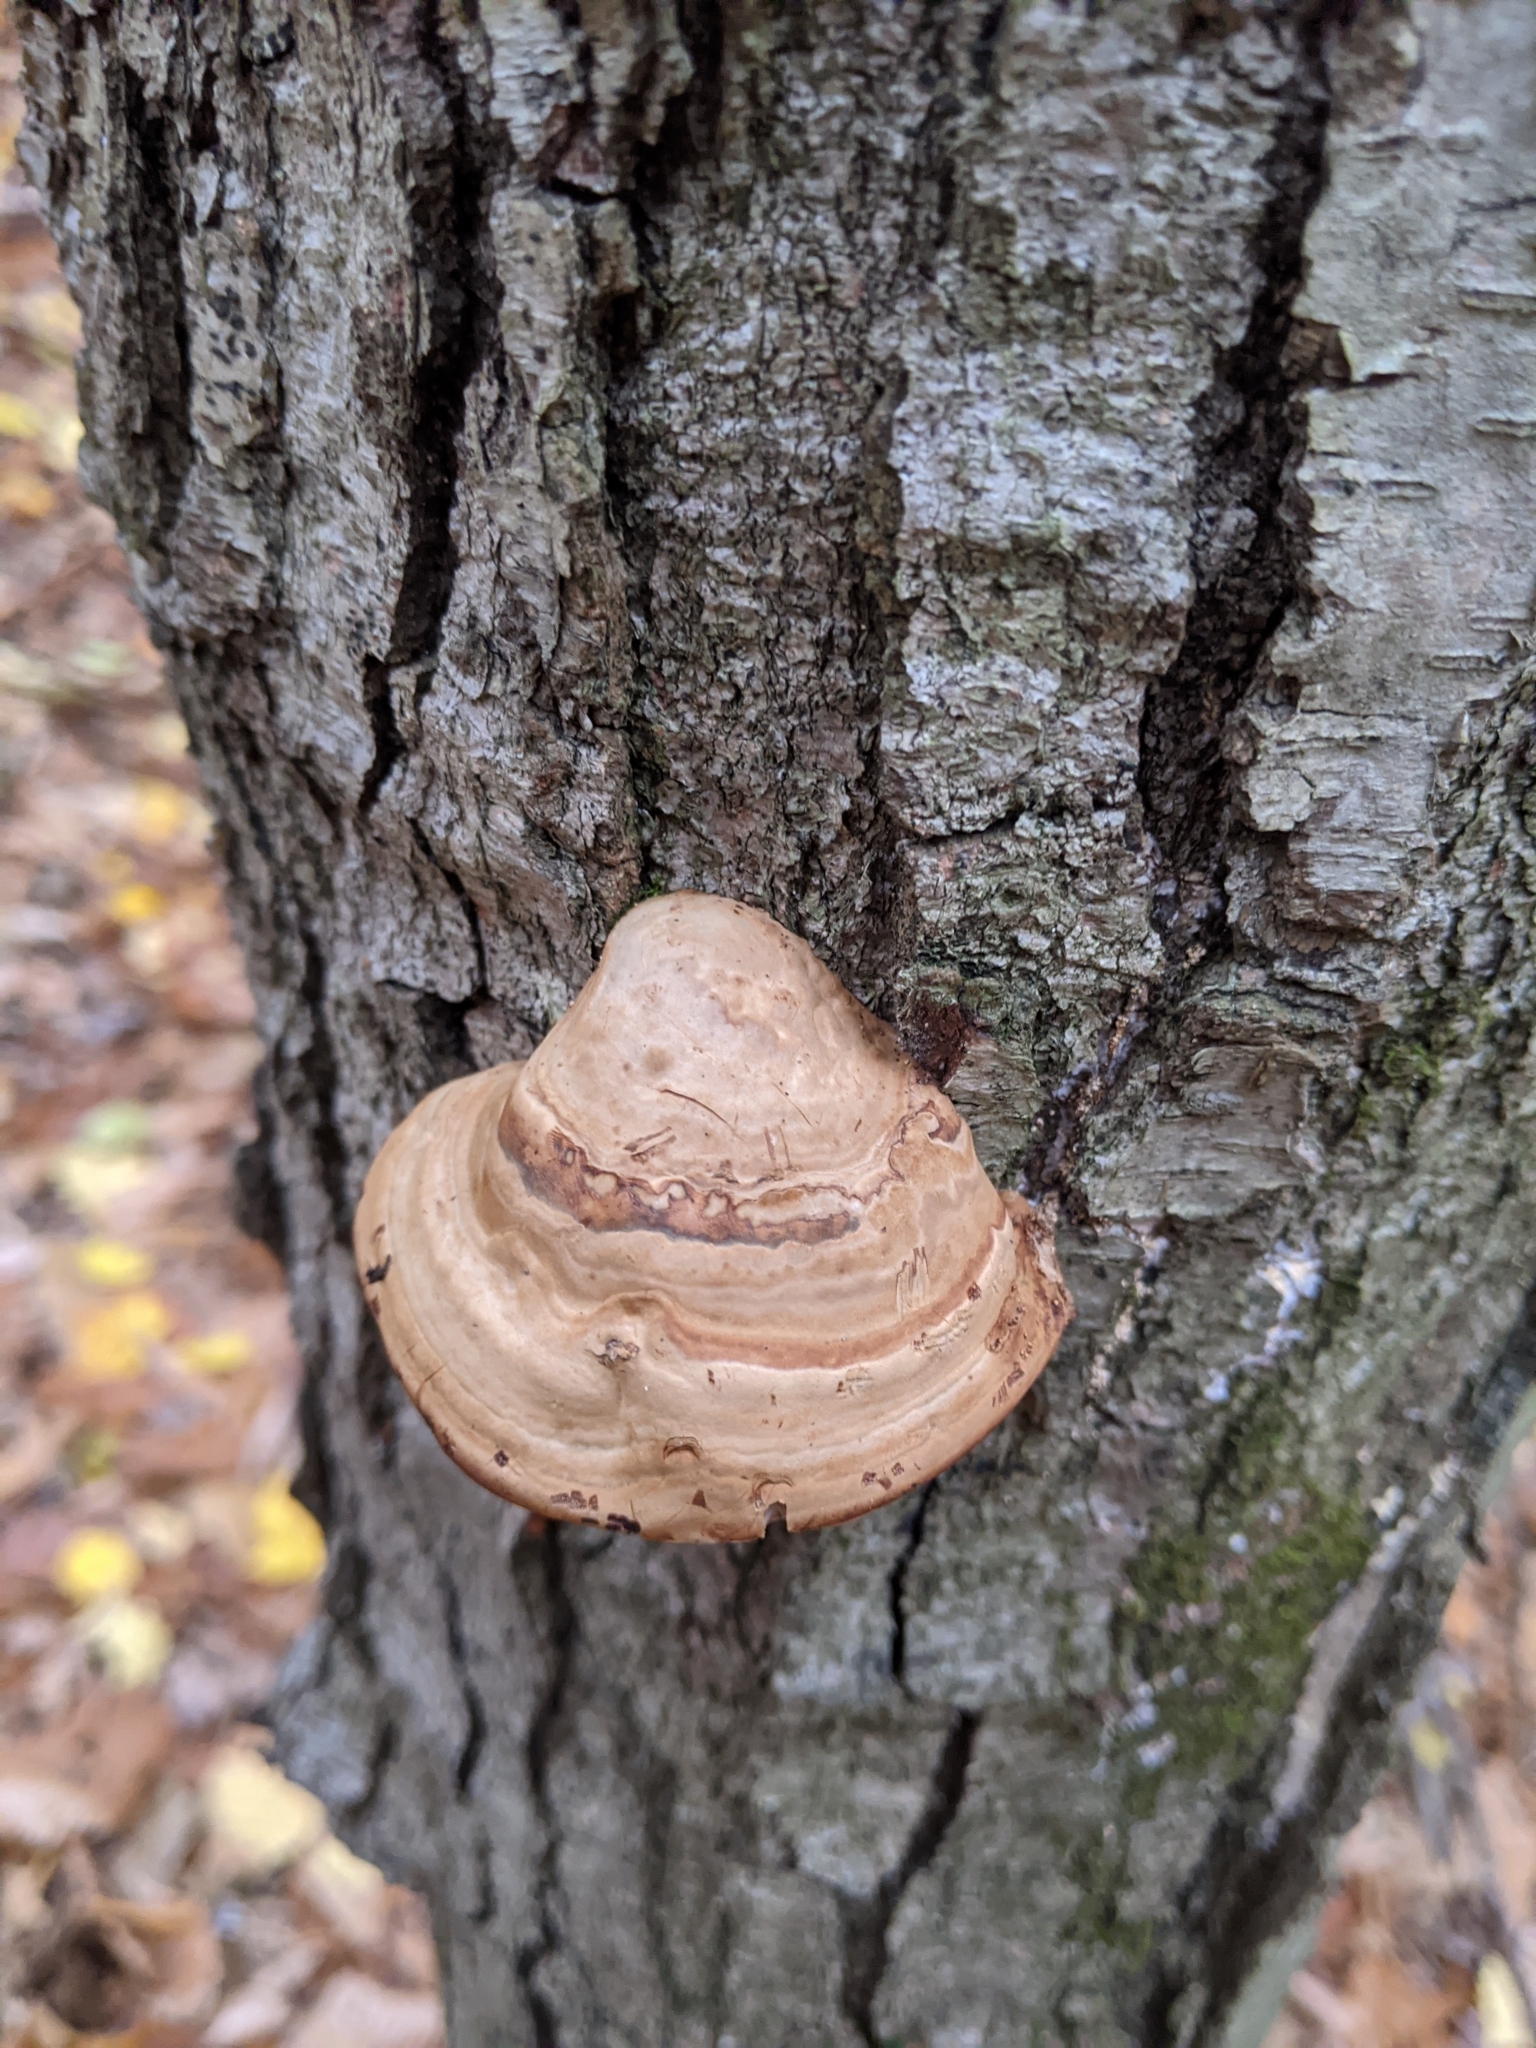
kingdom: Fungi
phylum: Basidiomycota
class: Agaricomycetes
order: Polyporales
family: Polyporaceae
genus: Fomes
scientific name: Fomes fomentarius
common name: Hoof fungus
